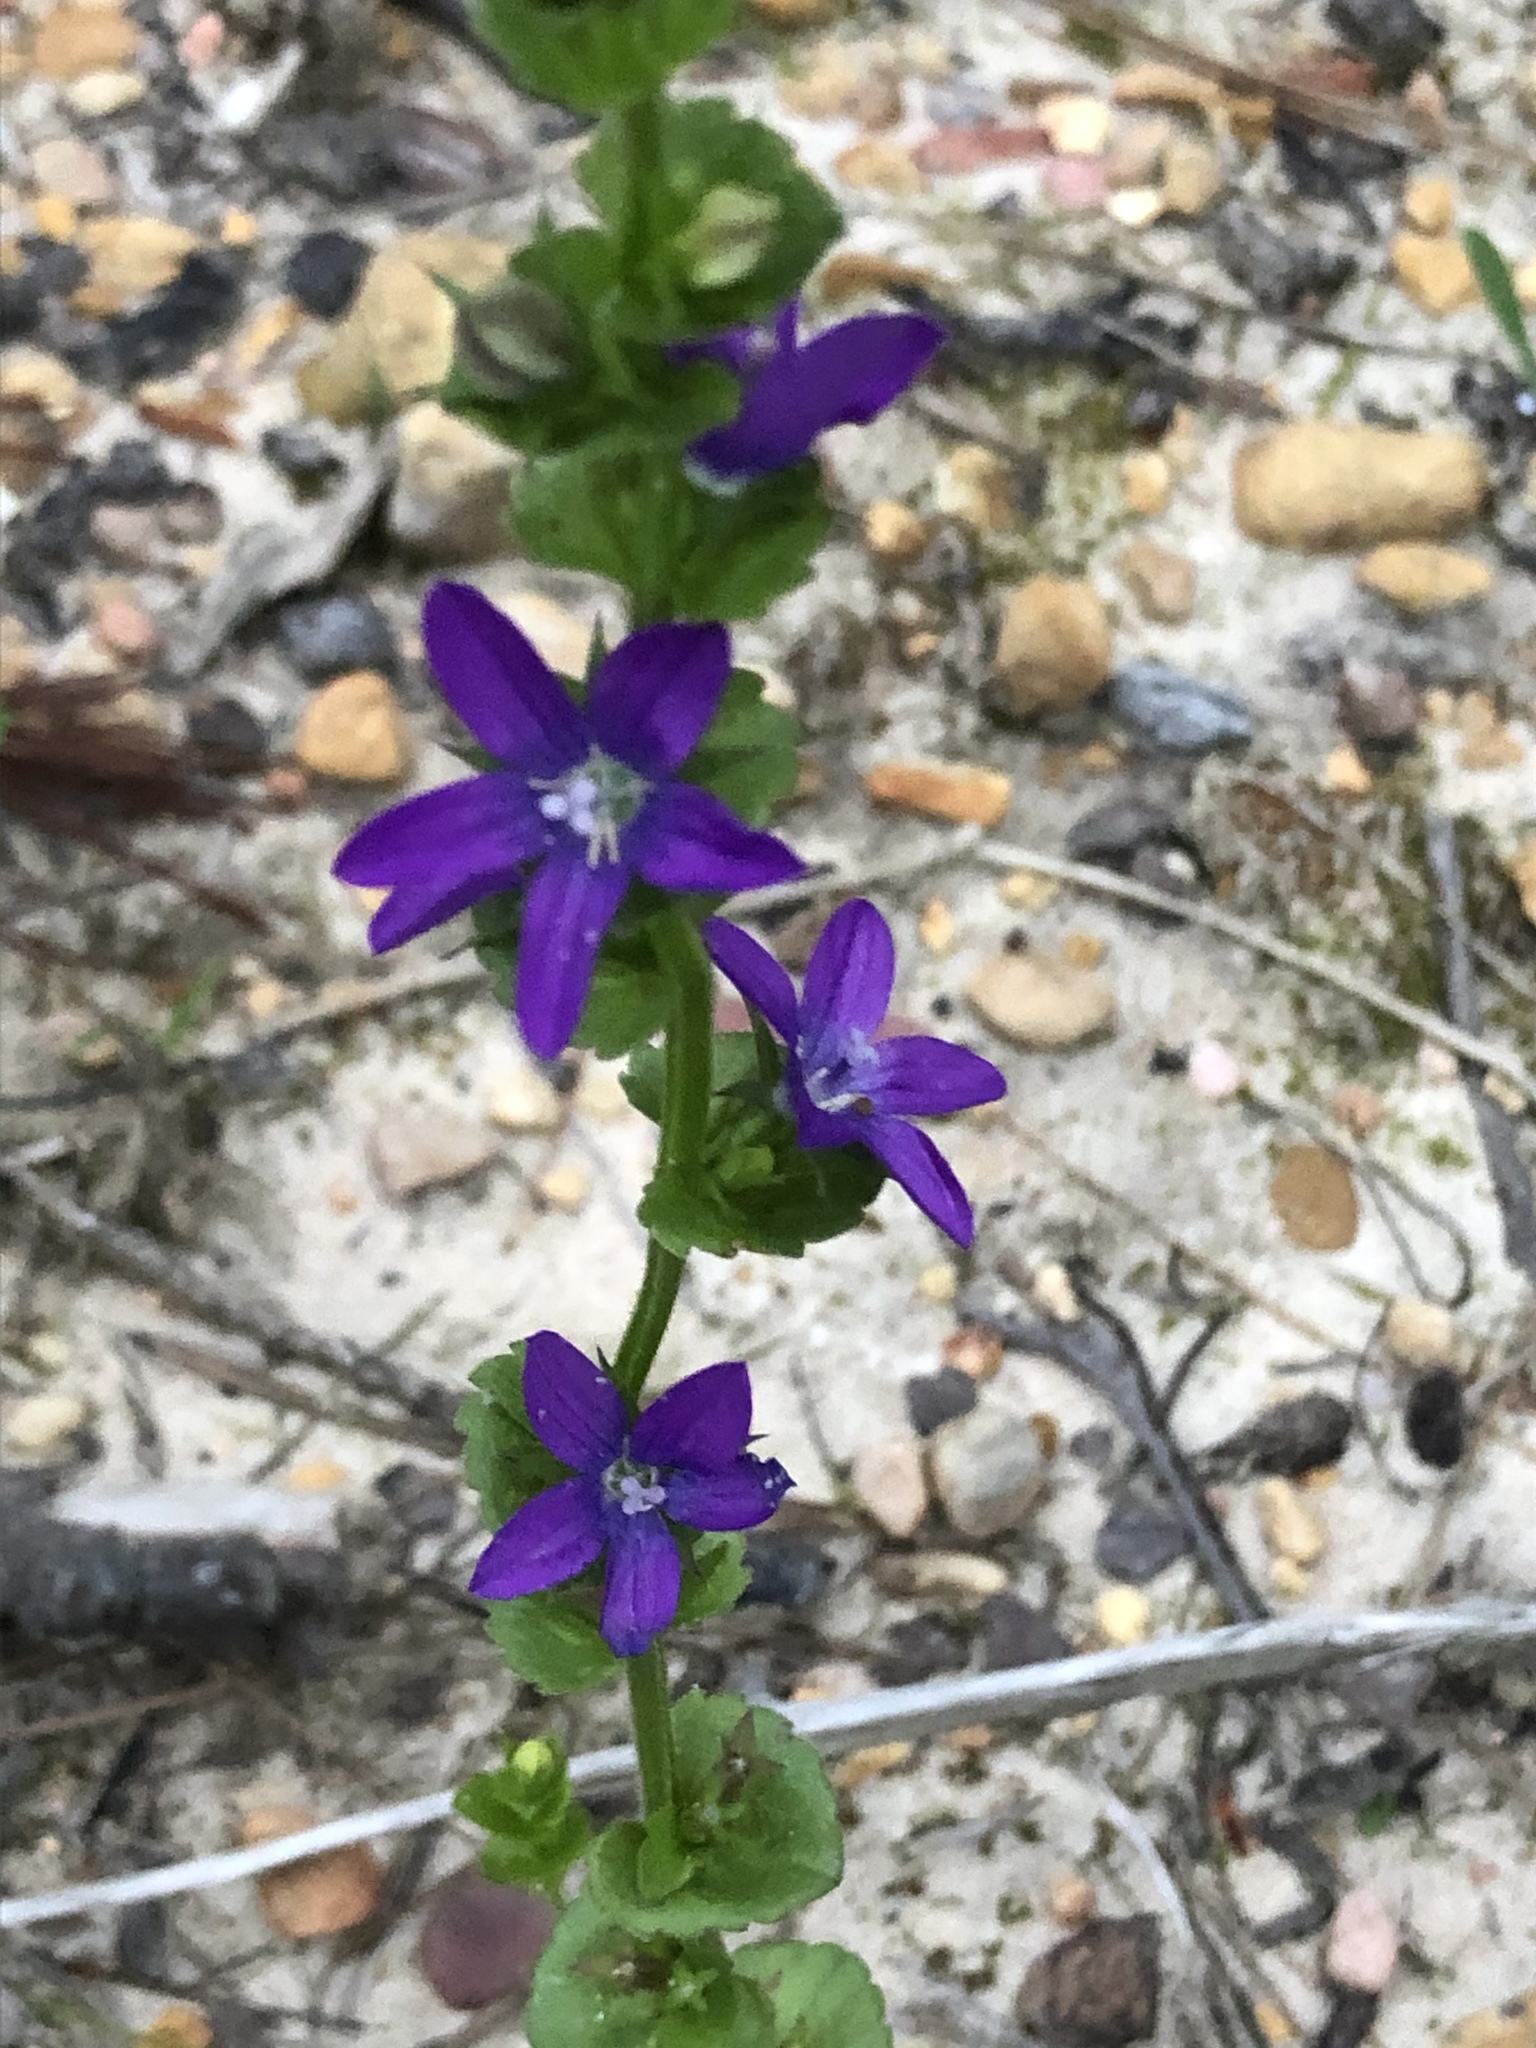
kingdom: Plantae
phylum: Tracheophyta
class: Magnoliopsida
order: Asterales
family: Campanulaceae
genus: Triodanis
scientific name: Triodanis perfoliata
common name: Clasping venus' looking-glass
